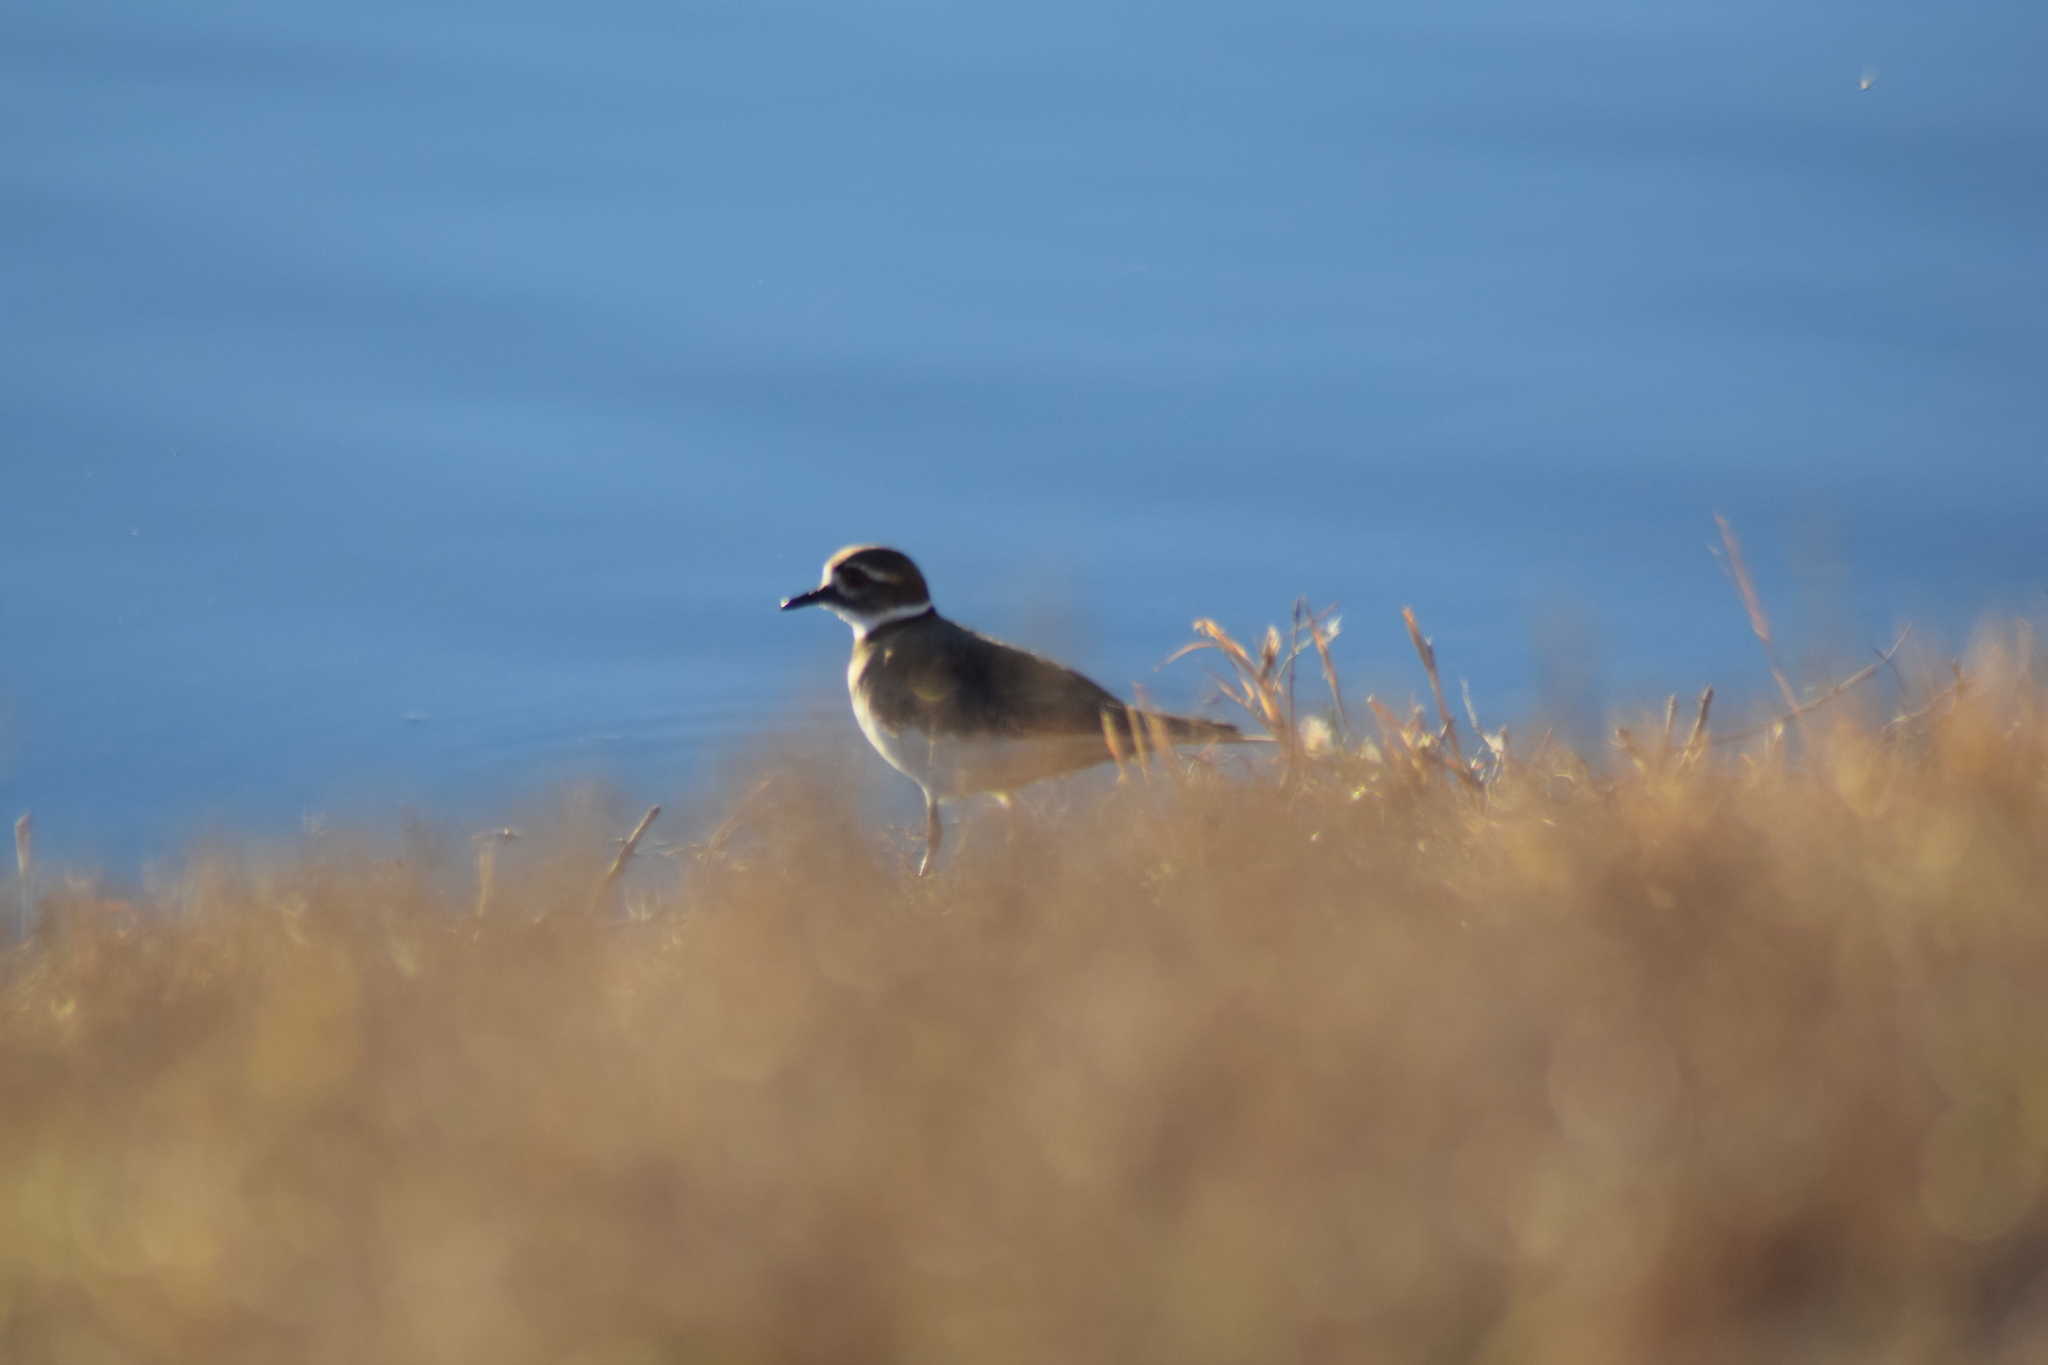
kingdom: Animalia
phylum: Chordata
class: Aves
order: Charadriiformes
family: Charadriidae
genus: Charadrius
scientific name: Charadrius vociferus
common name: Killdeer
